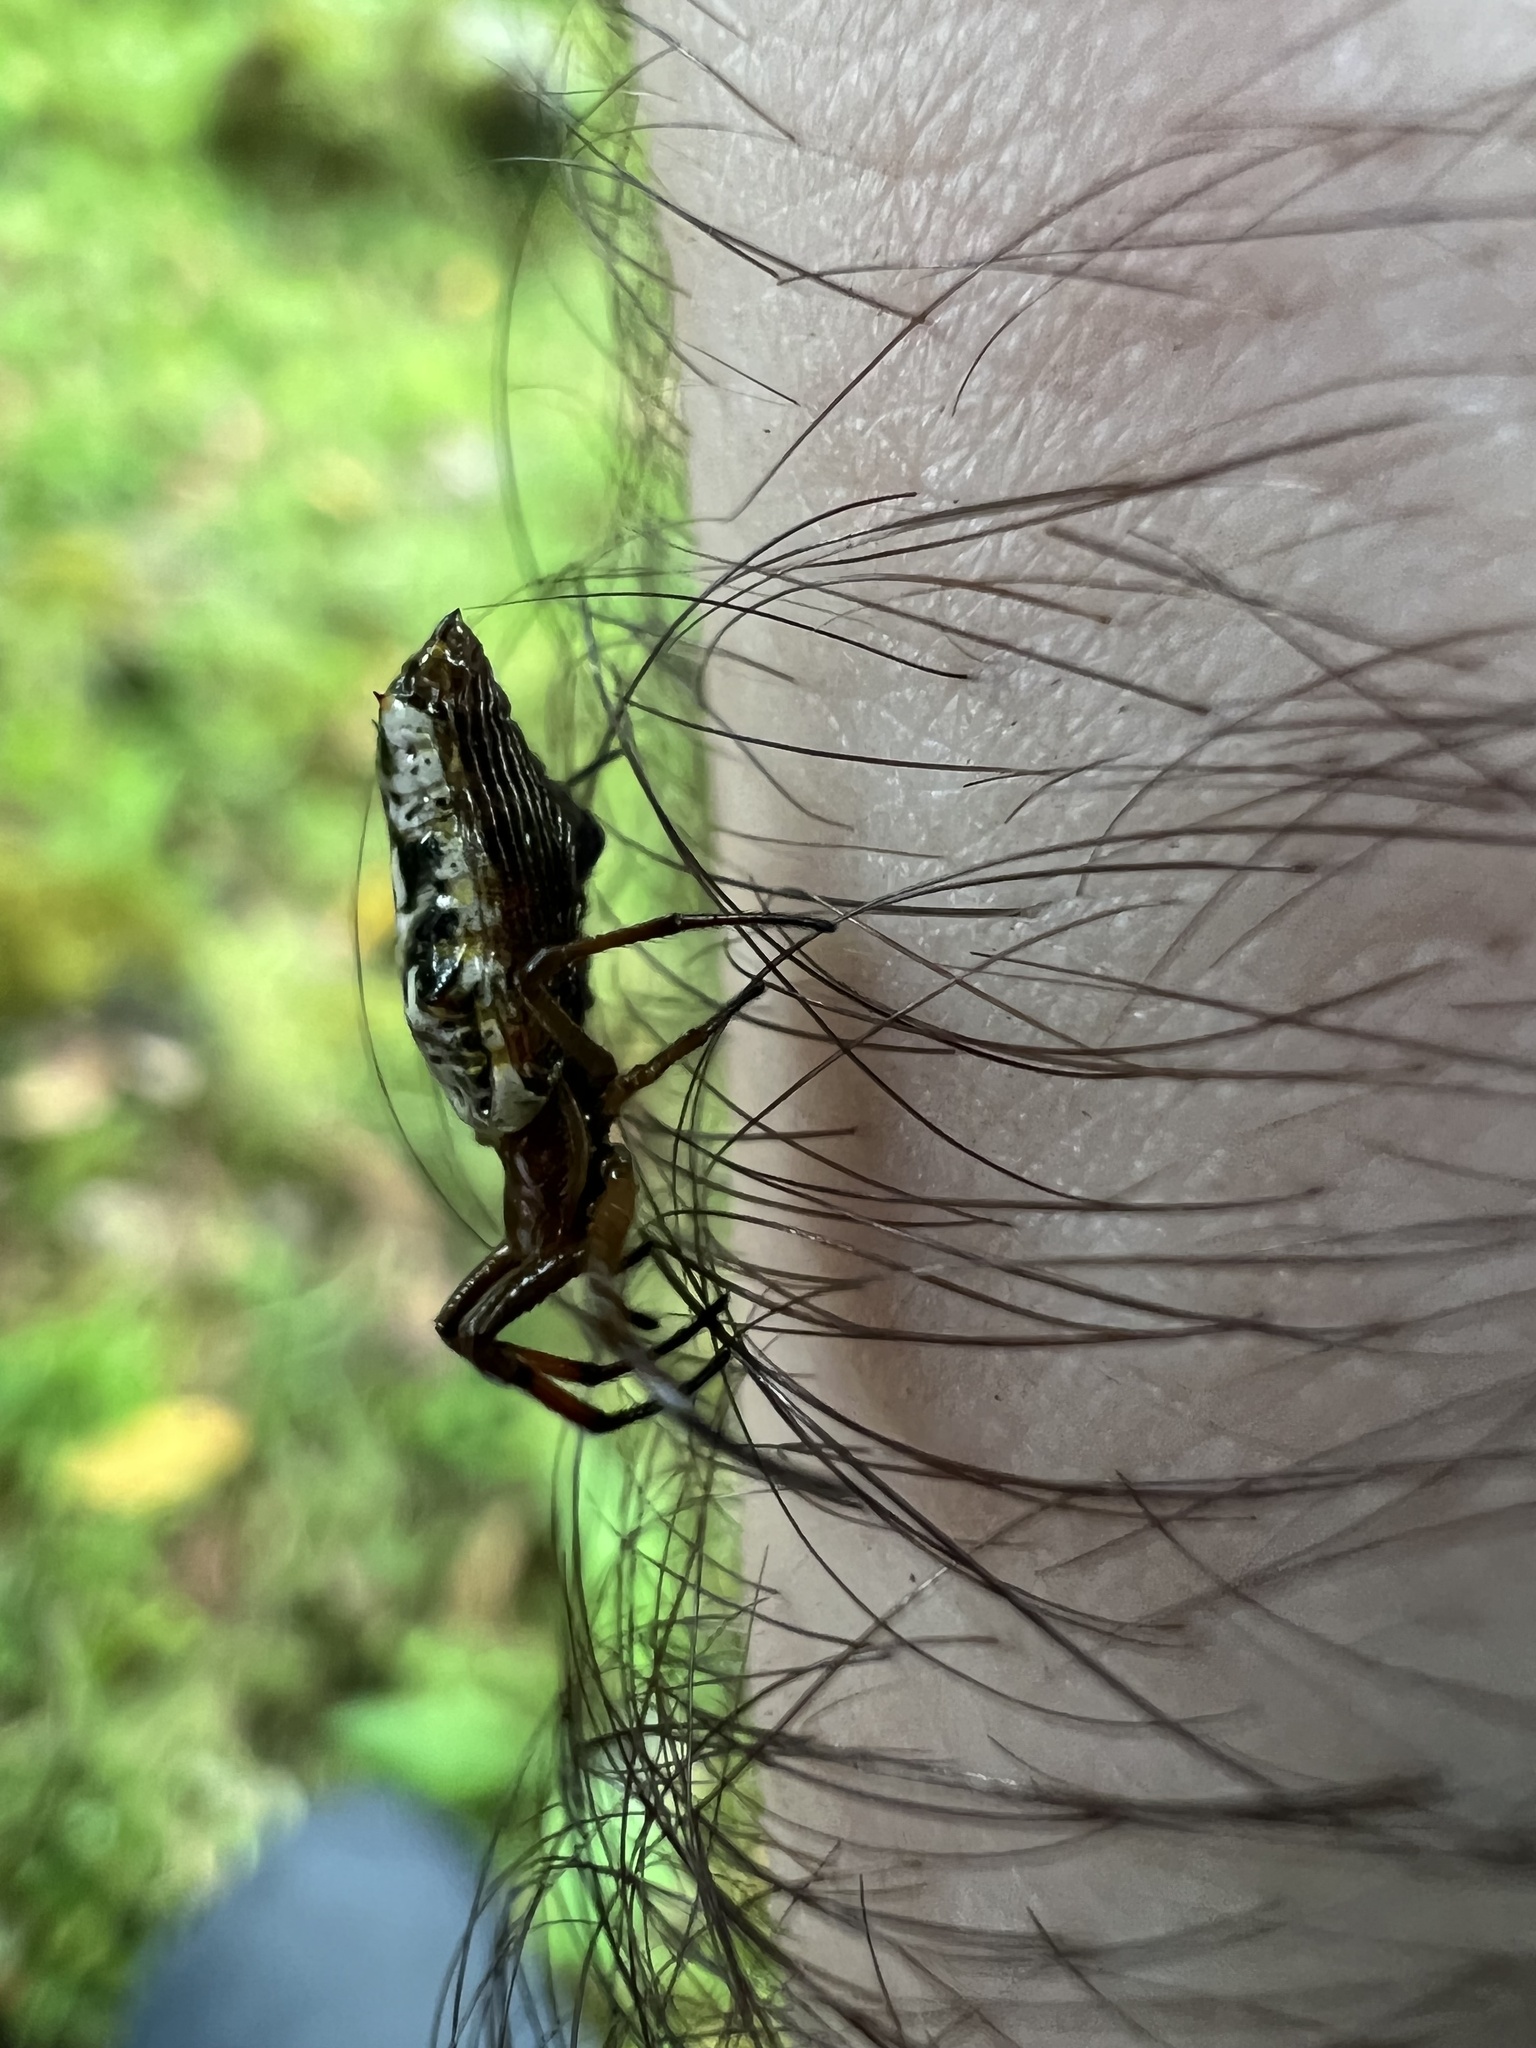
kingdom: Animalia
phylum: Arthropoda
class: Arachnida
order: Araneae
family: Araneidae
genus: Micrathena
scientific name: Micrathena bogota
